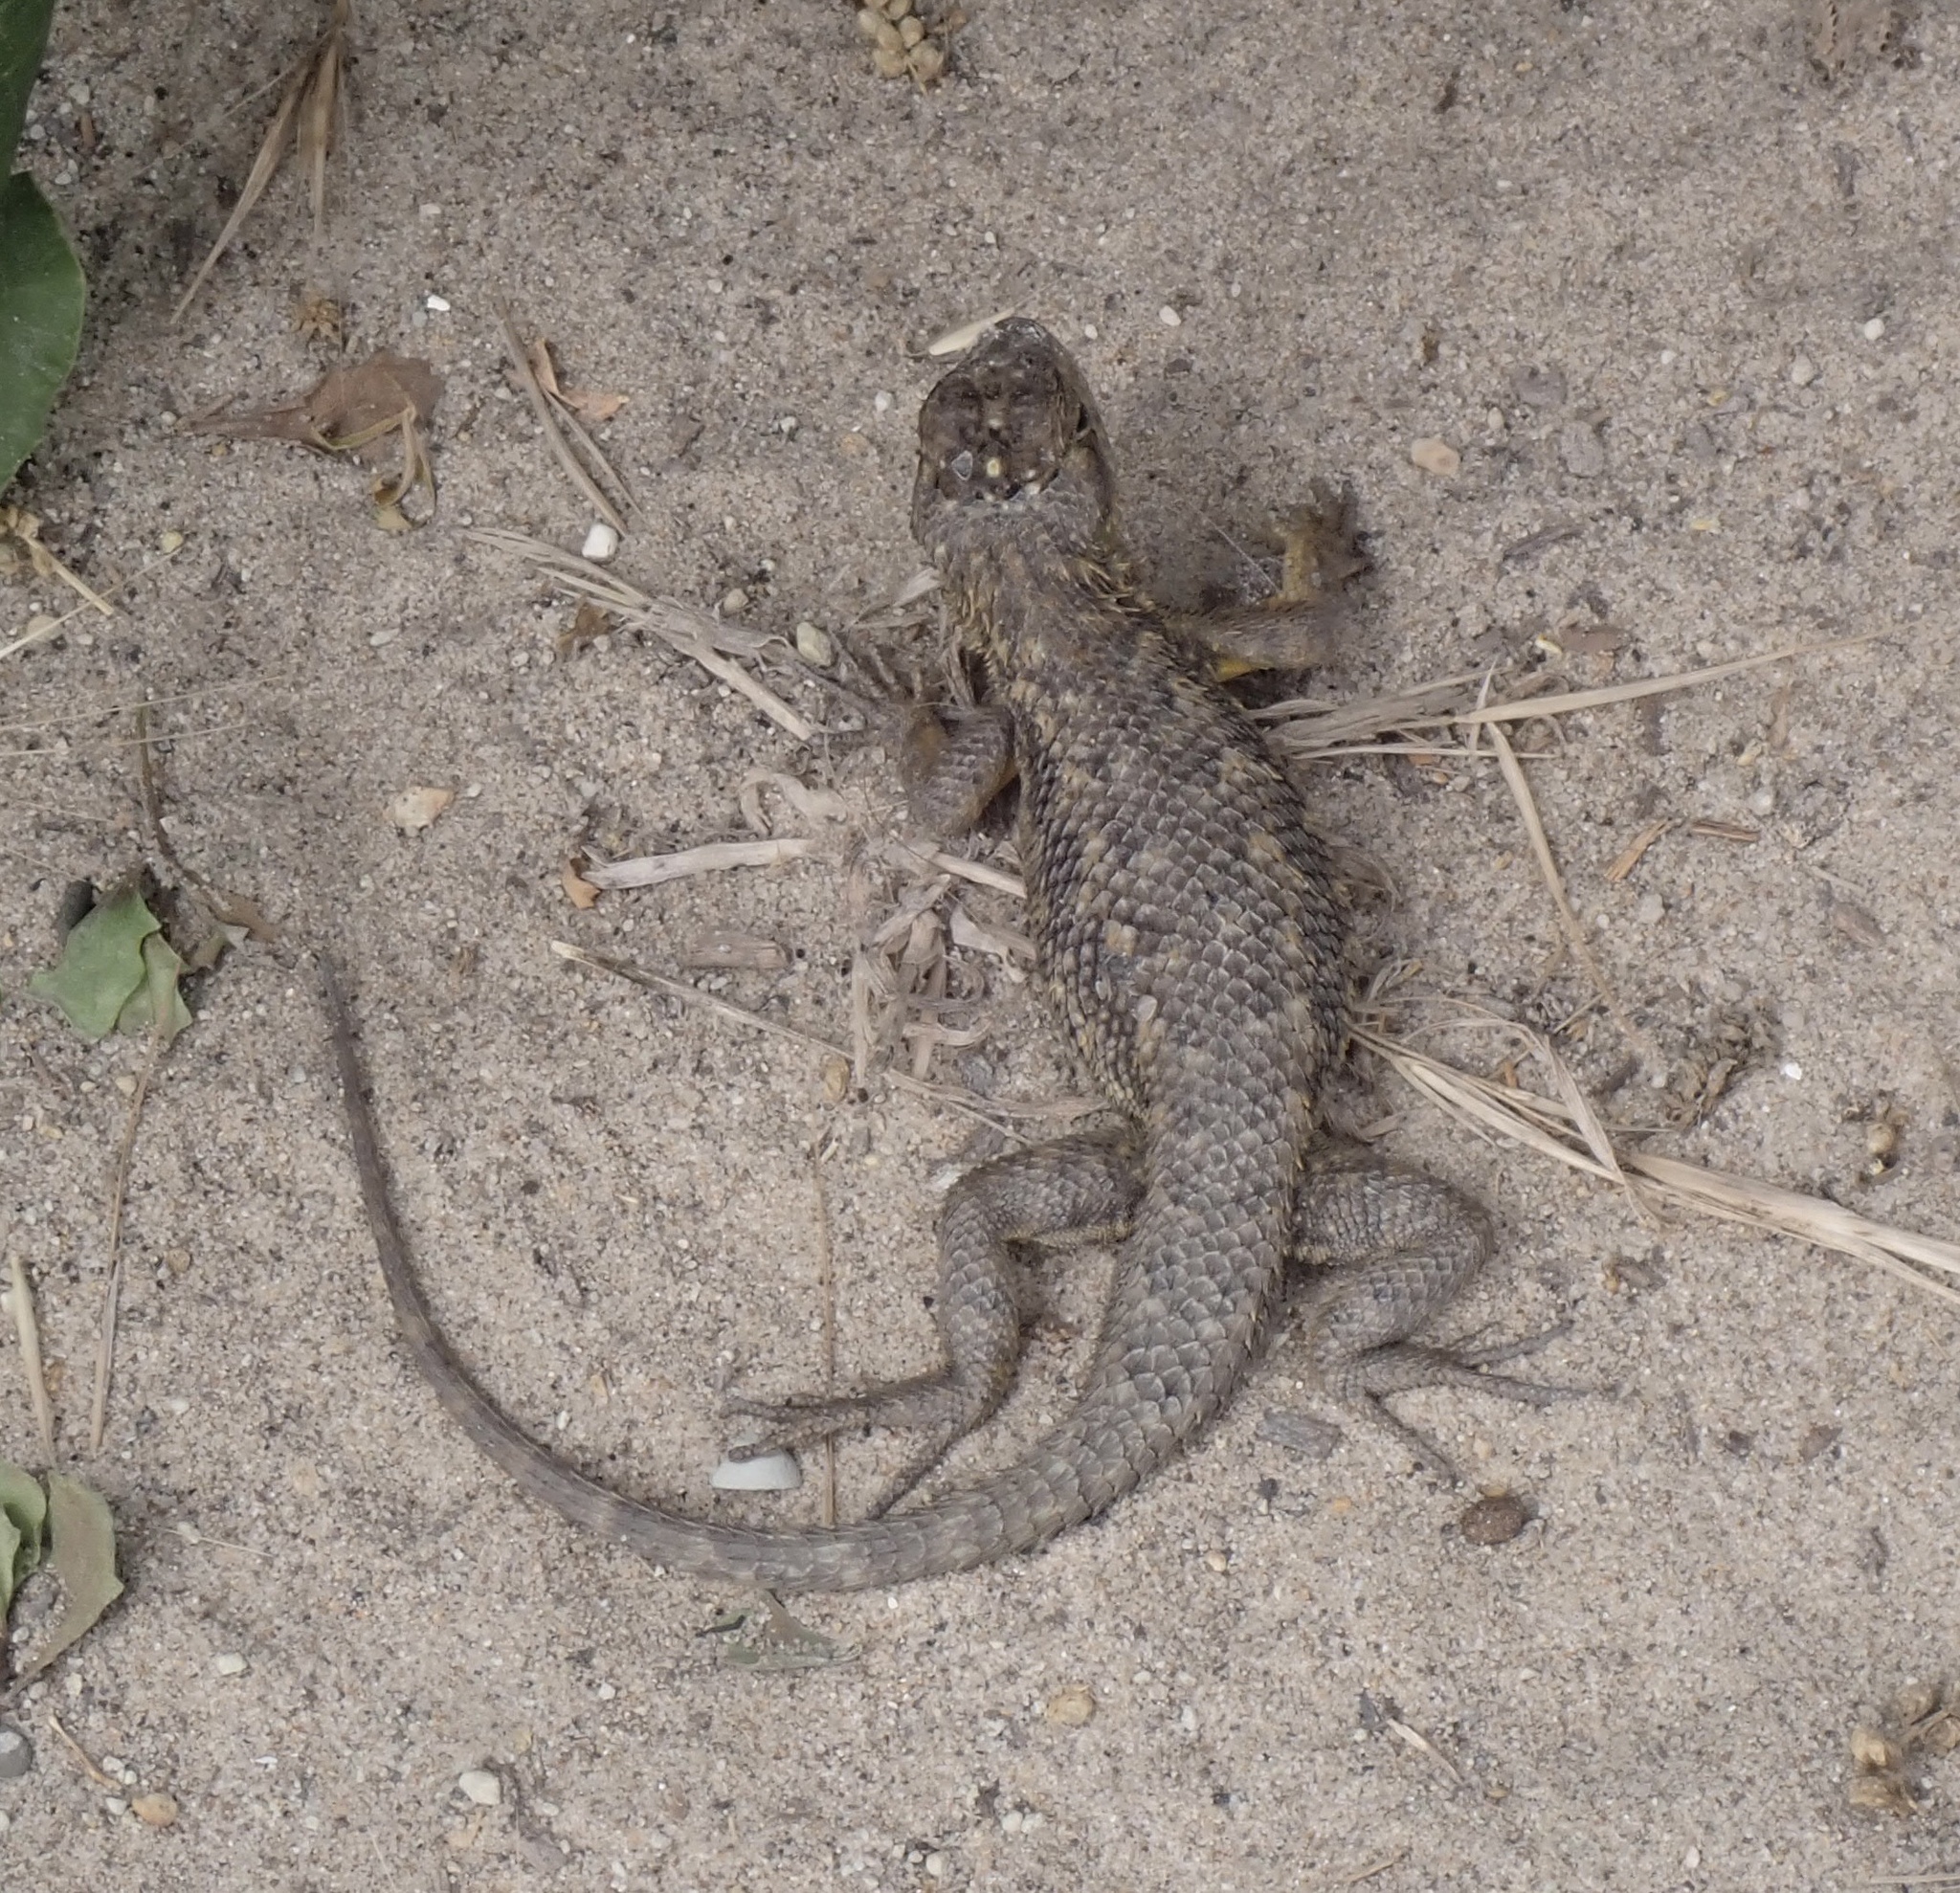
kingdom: Animalia
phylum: Chordata
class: Squamata
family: Phrynosomatidae
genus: Sceloporus
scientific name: Sceloporus occidentalis
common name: Western fence lizard
